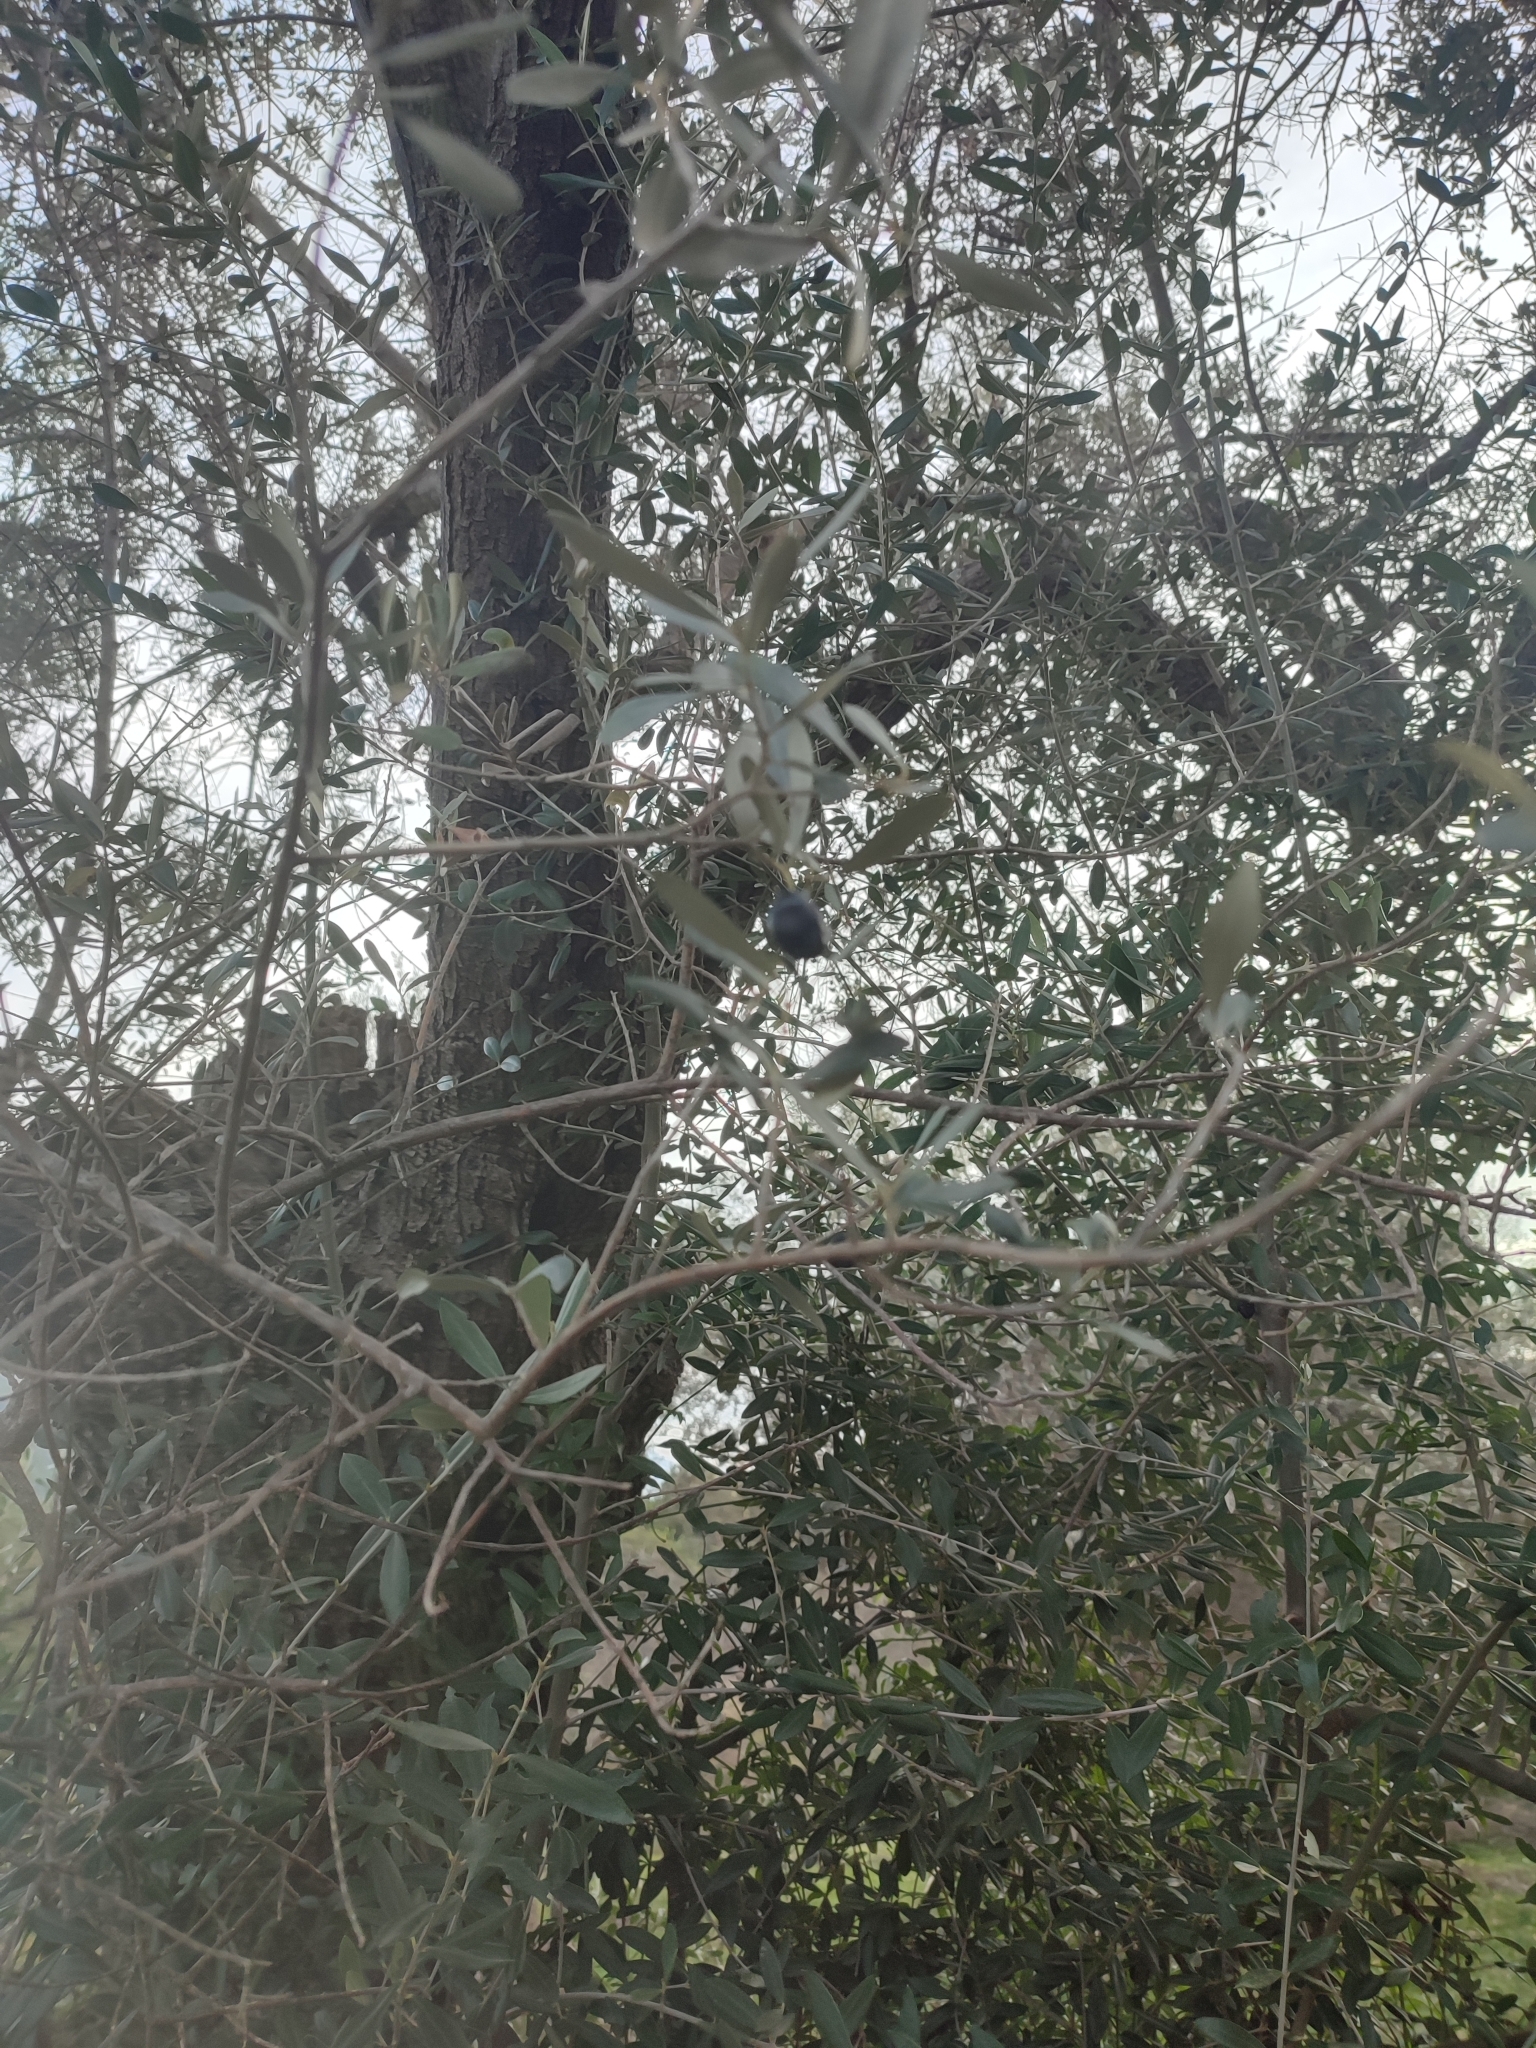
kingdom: Plantae
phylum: Tracheophyta
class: Magnoliopsida
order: Lamiales
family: Oleaceae
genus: Olea
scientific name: Olea europaea
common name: Olive
